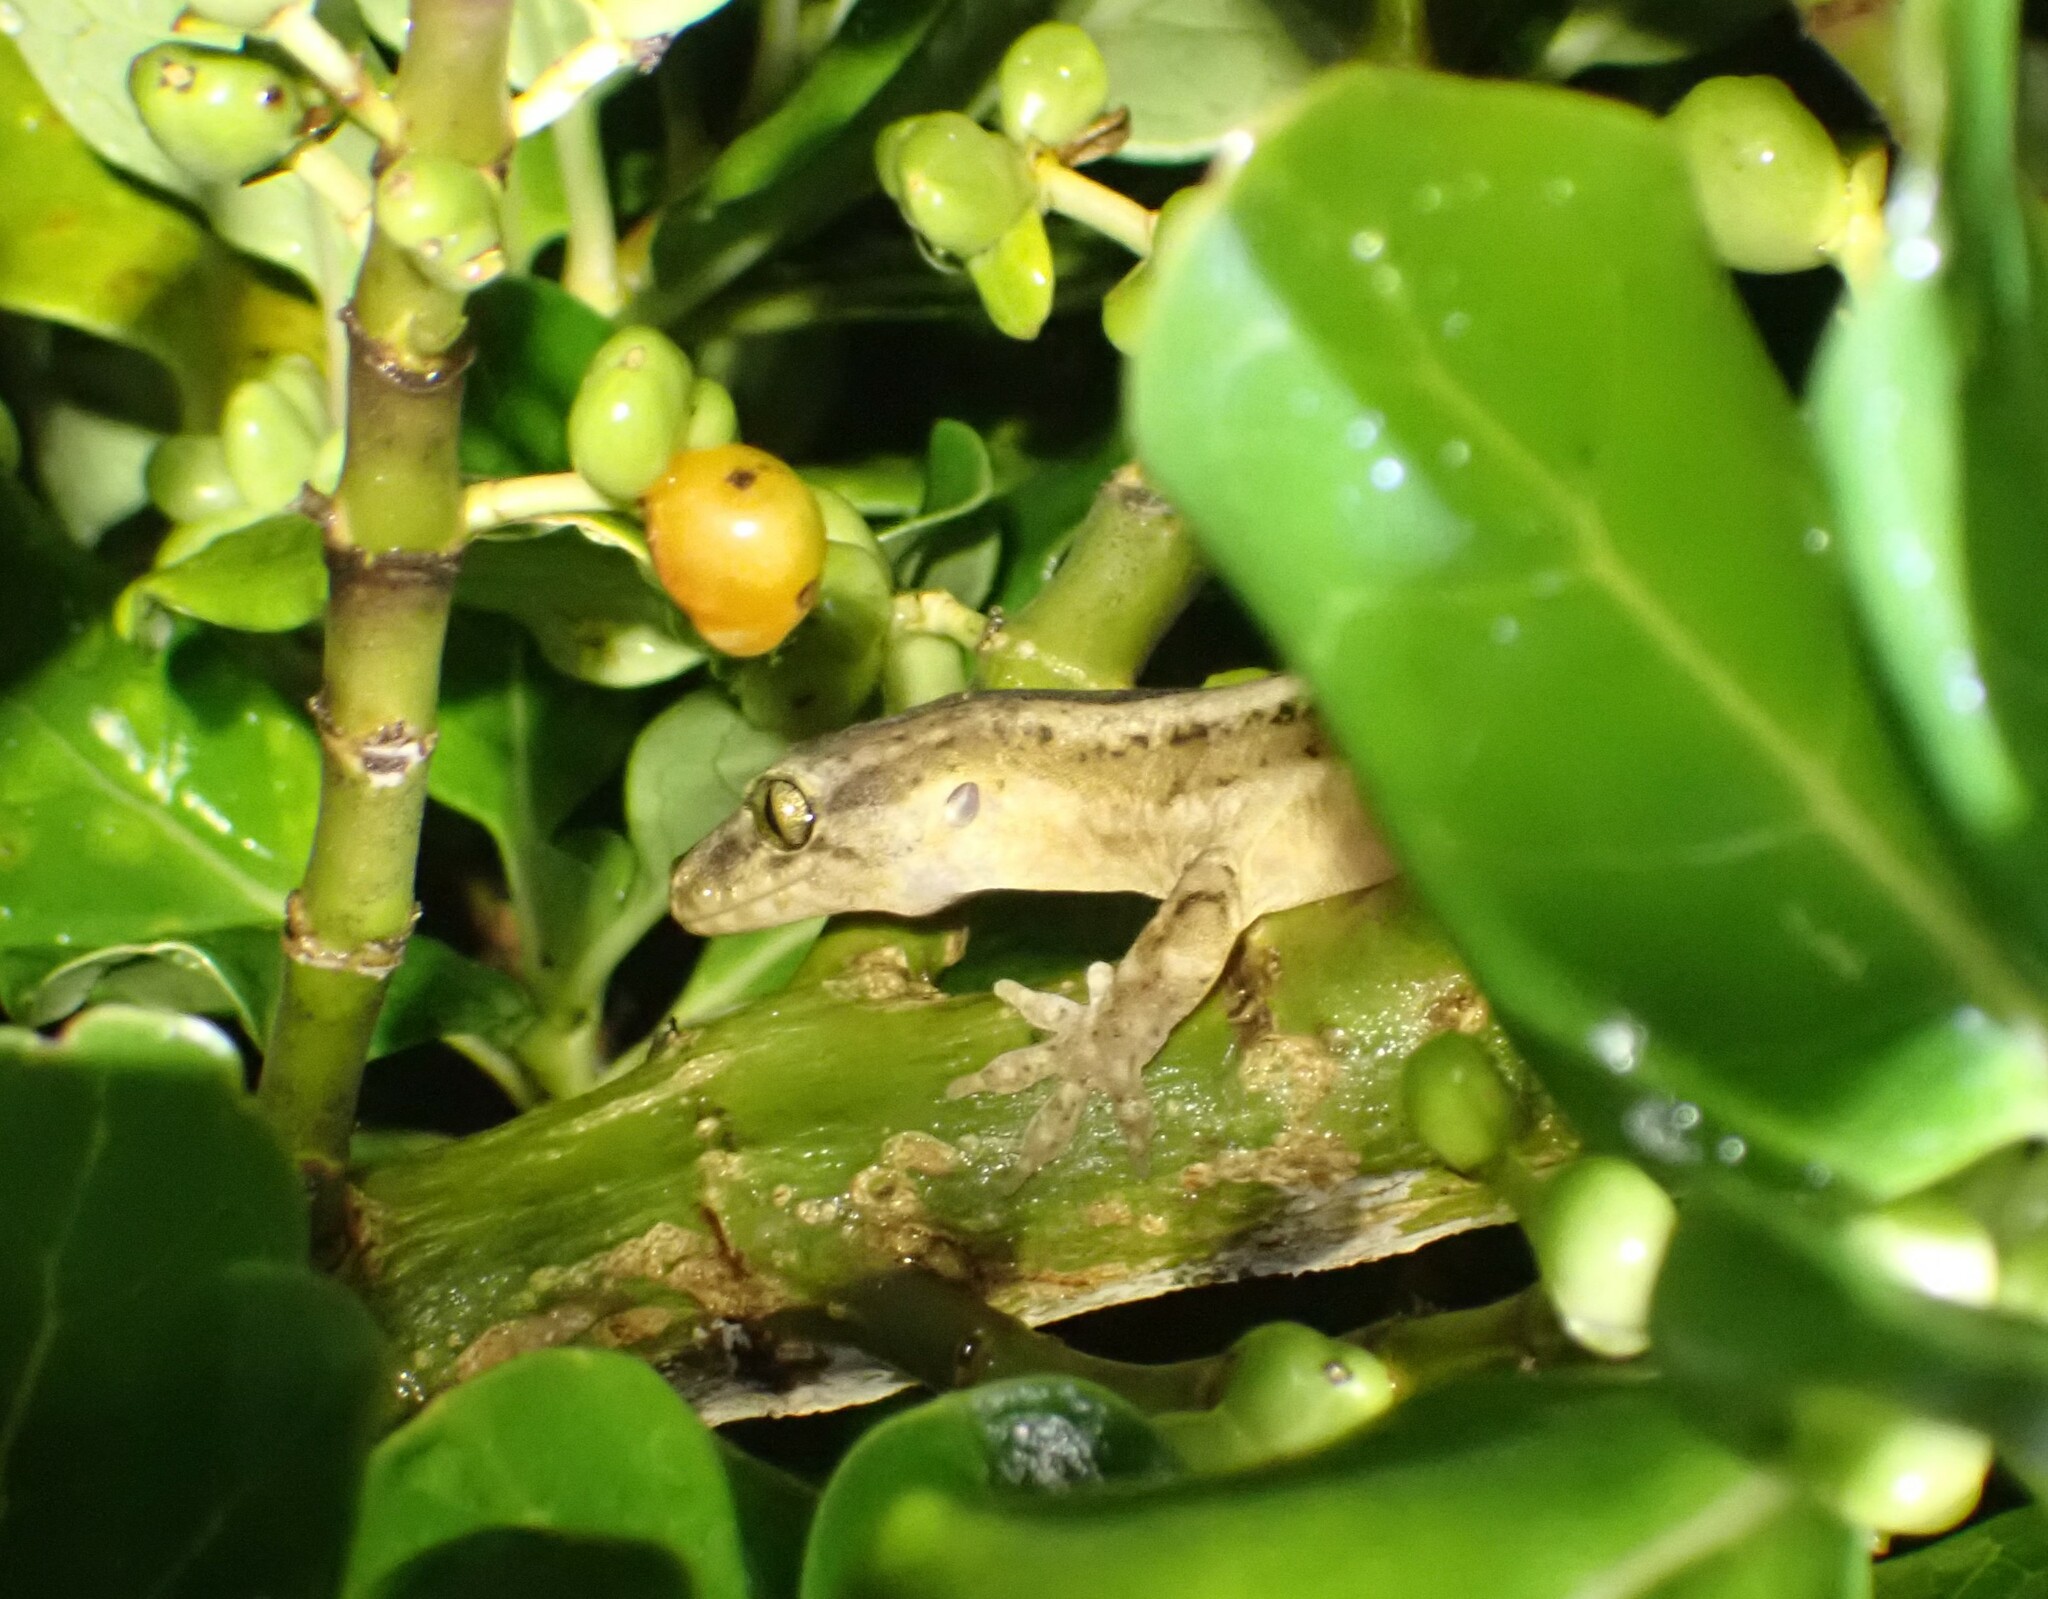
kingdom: Animalia
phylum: Chordata
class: Squamata
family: Diplodactylidae
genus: Woodworthia
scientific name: Woodworthia maculata
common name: Raukawa gecko
